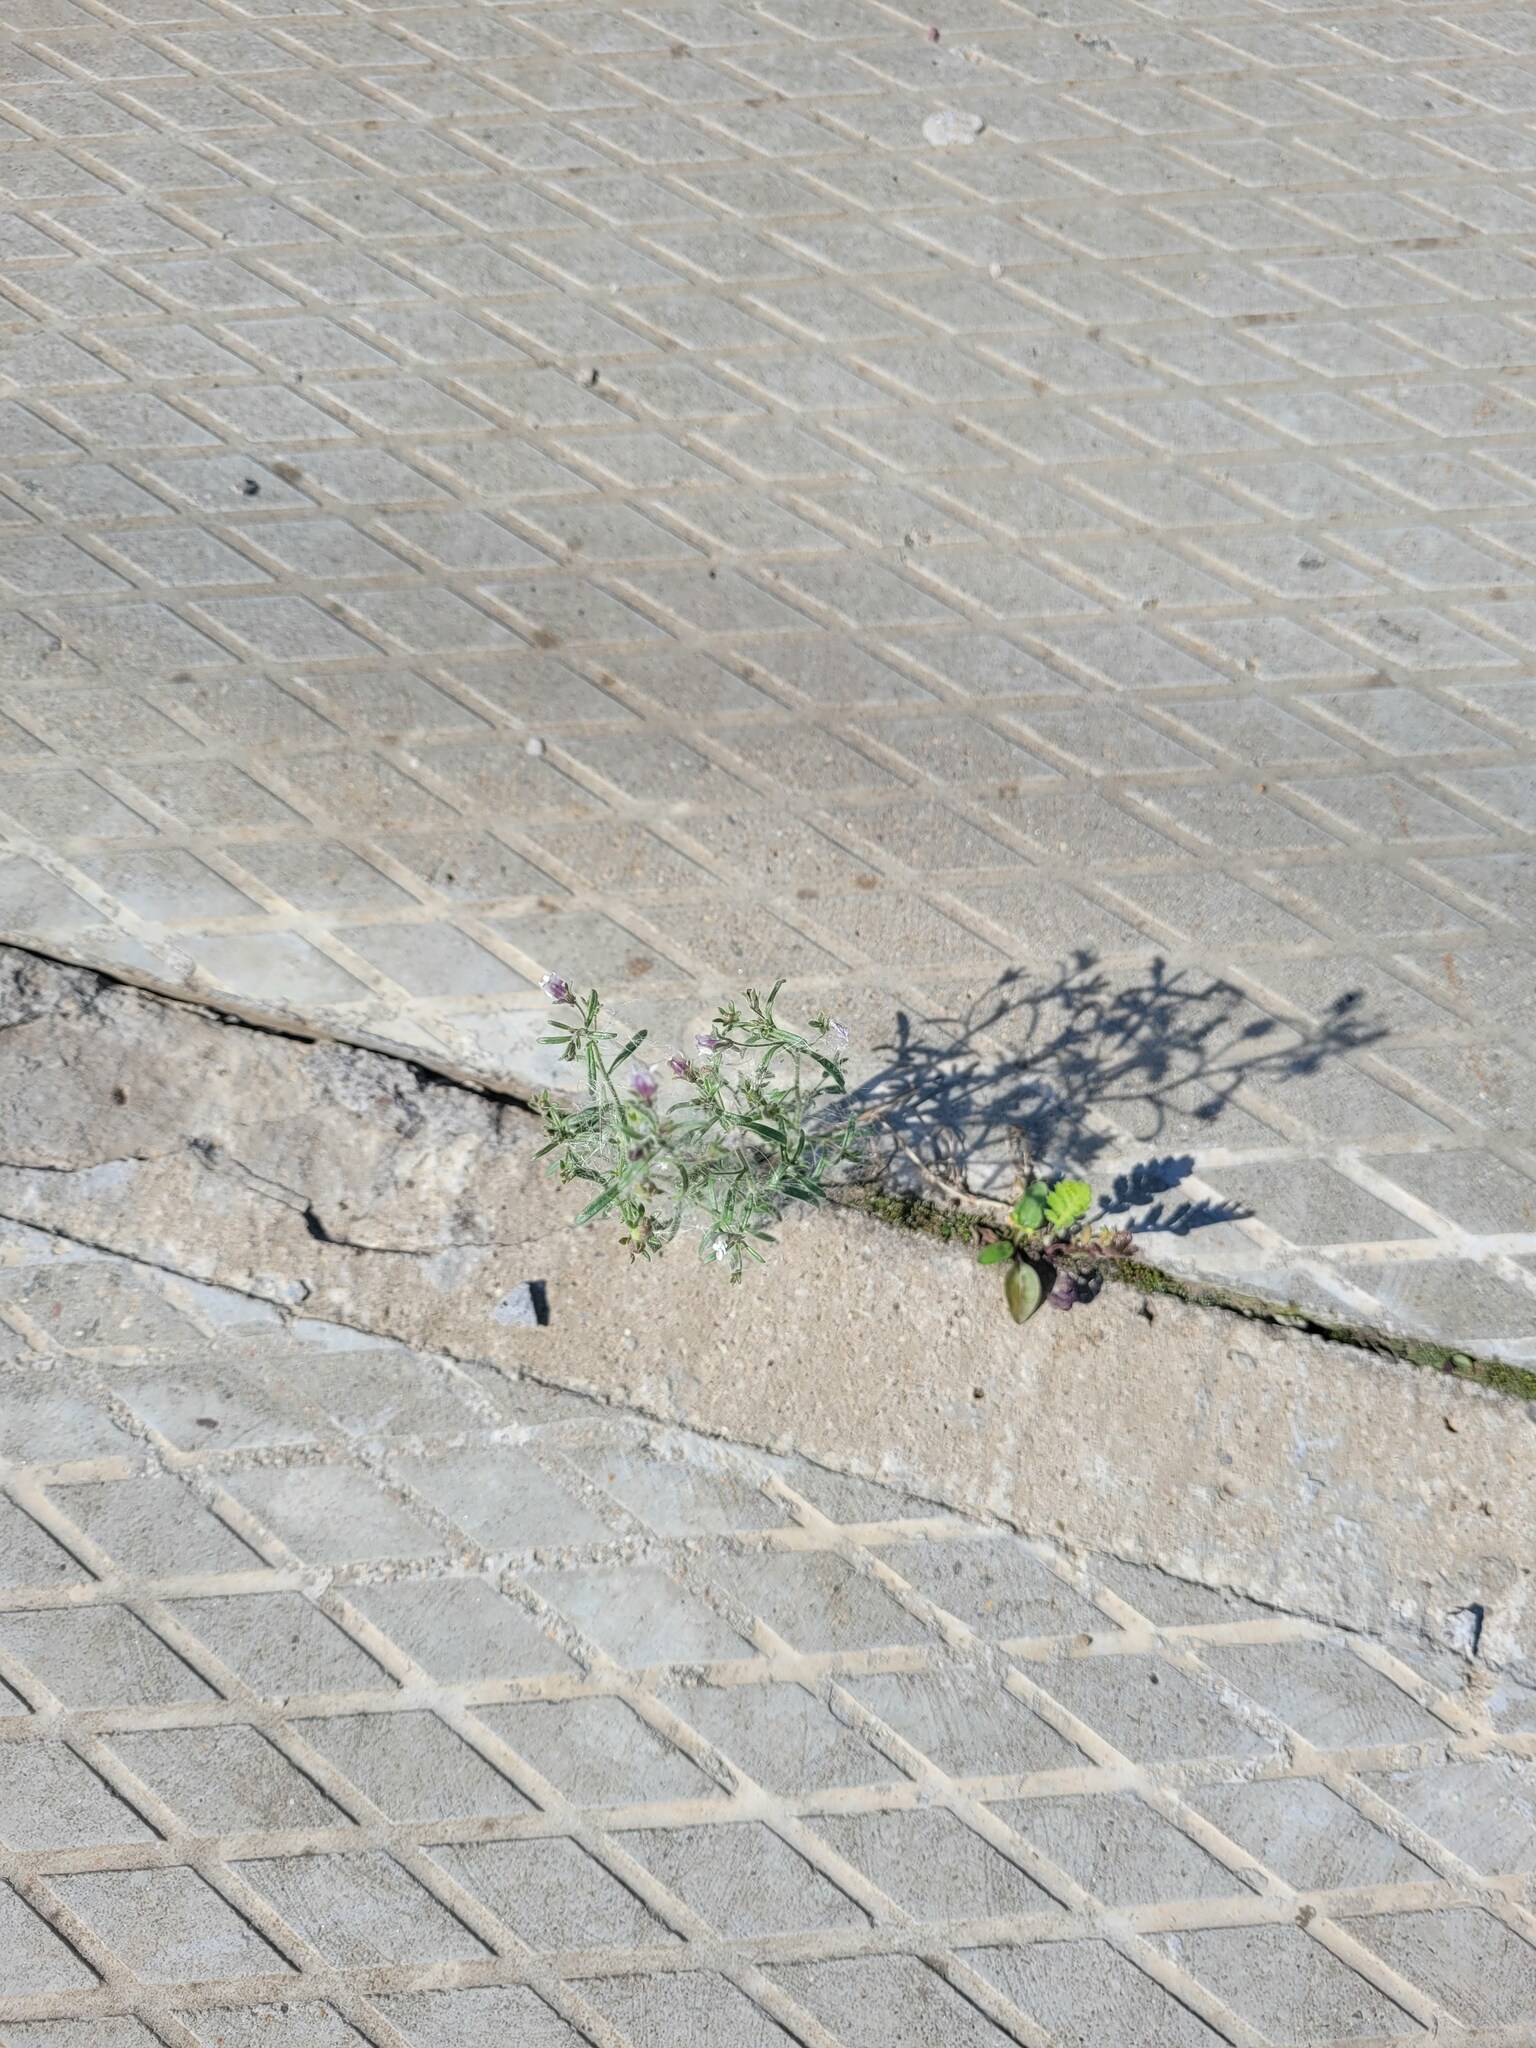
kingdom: Plantae
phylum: Tracheophyta
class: Magnoliopsida
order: Lamiales
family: Plantaginaceae
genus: Chaenorhinum
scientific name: Chaenorhinum minus
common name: Dwarf snapdragon
